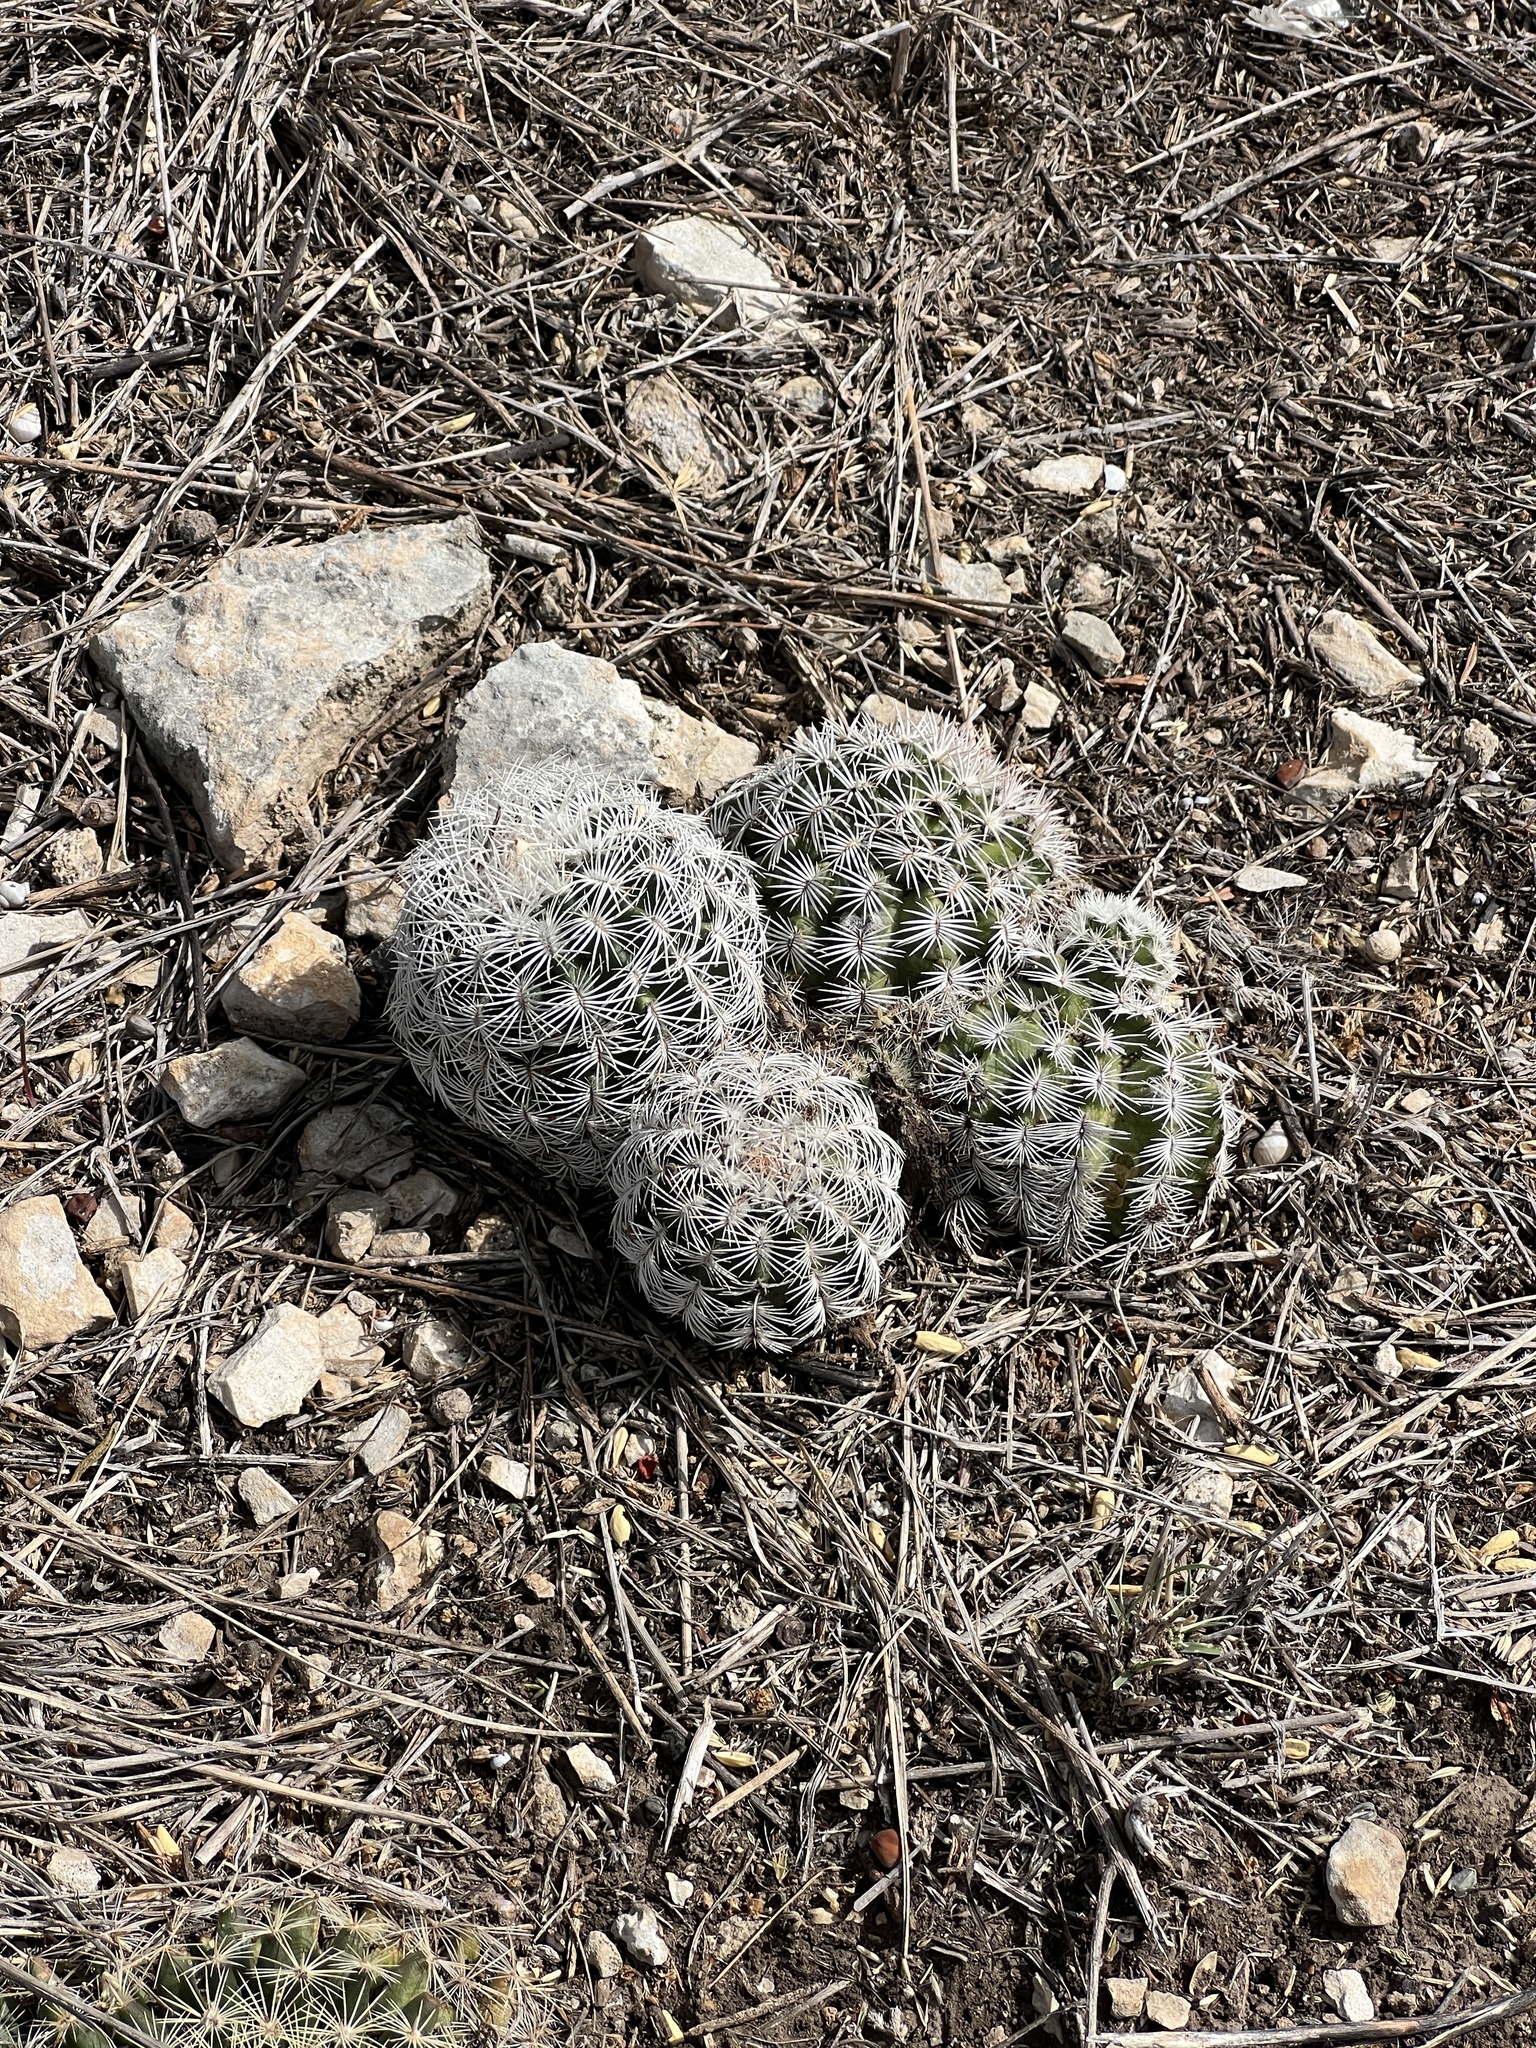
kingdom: Plantae
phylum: Tracheophyta
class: Magnoliopsida
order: Caryophyllales
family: Cactaceae
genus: Echinocereus
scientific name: Echinocereus reichenbachii
